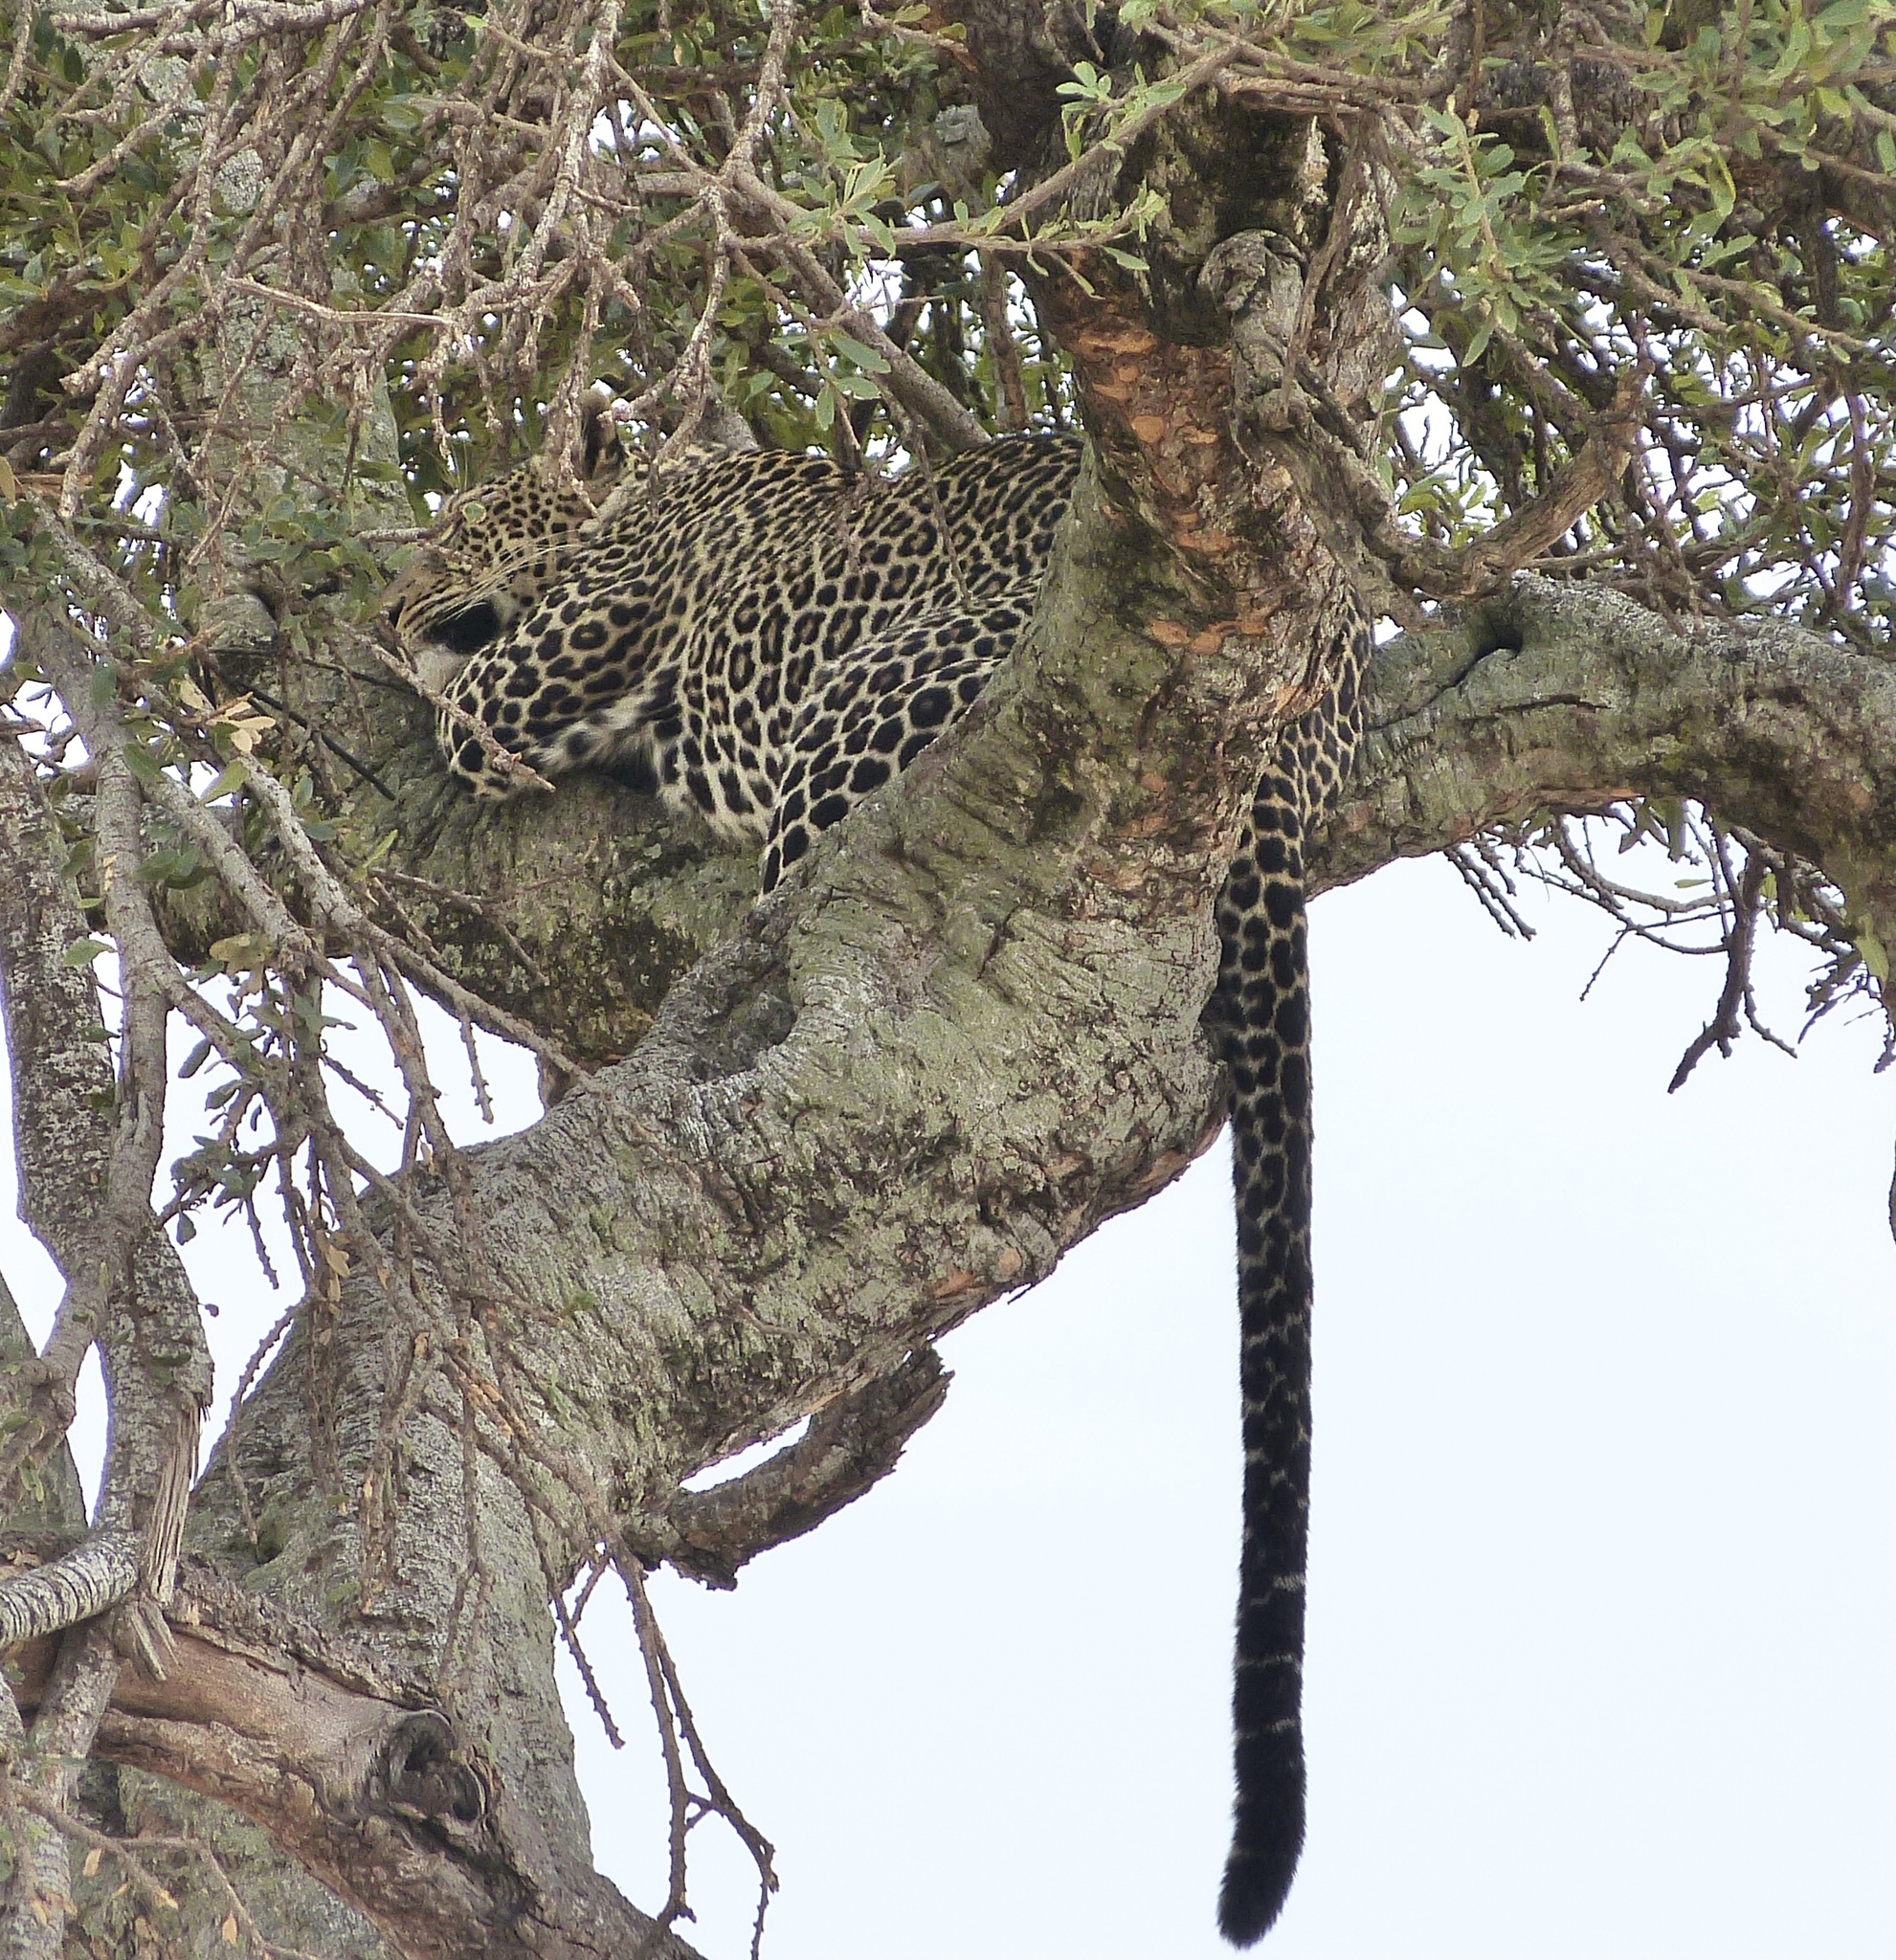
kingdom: Animalia
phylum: Chordata
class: Mammalia
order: Carnivora
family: Felidae
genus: Panthera
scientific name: Panthera pardus
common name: Leopard
